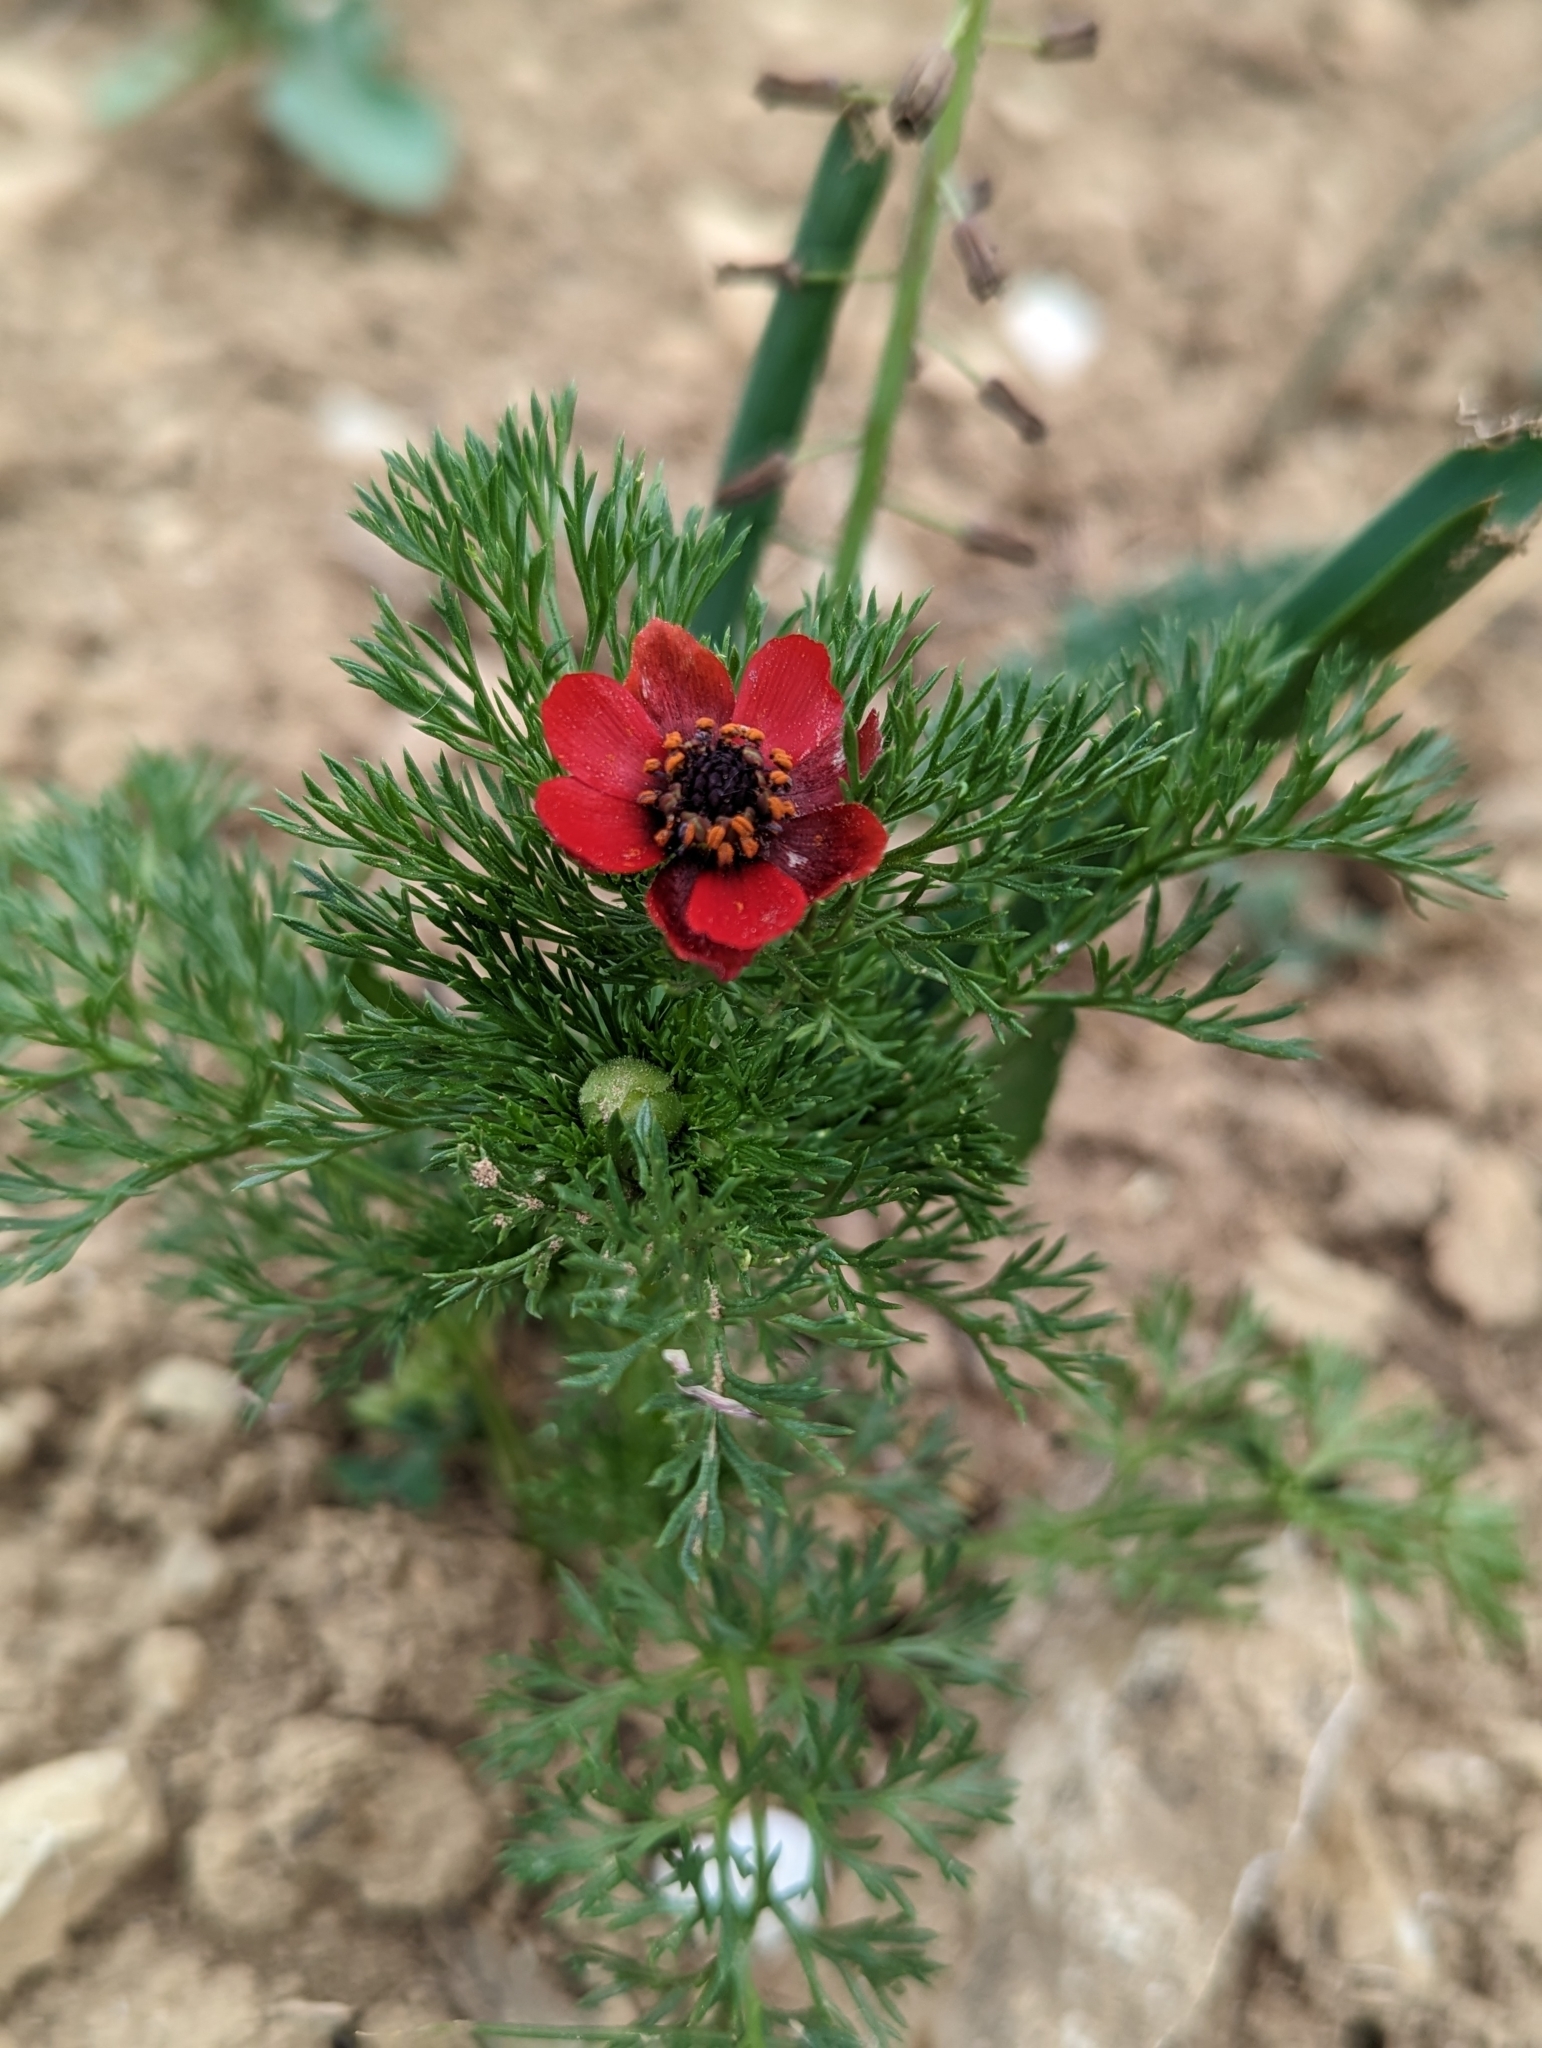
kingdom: Plantae
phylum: Tracheophyta
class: Magnoliopsida
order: Ranunculales
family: Ranunculaceae
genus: Adonis
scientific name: Adonis annua
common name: Pheasant's-eye
